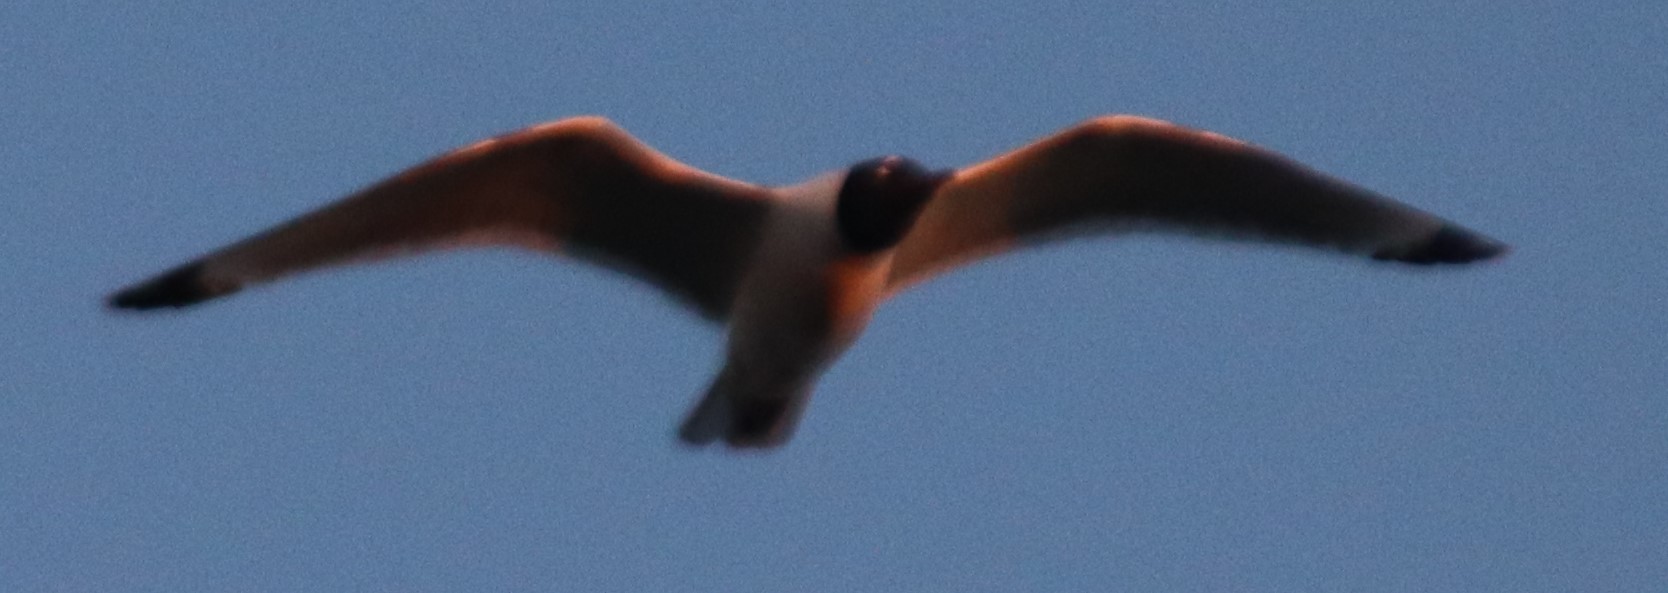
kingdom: Animalia
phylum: Chordata
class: Aves
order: Charadriiformes
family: Laridae
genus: Leucophaeus
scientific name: Leucophaeus pipixcan
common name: Franklin's gull
